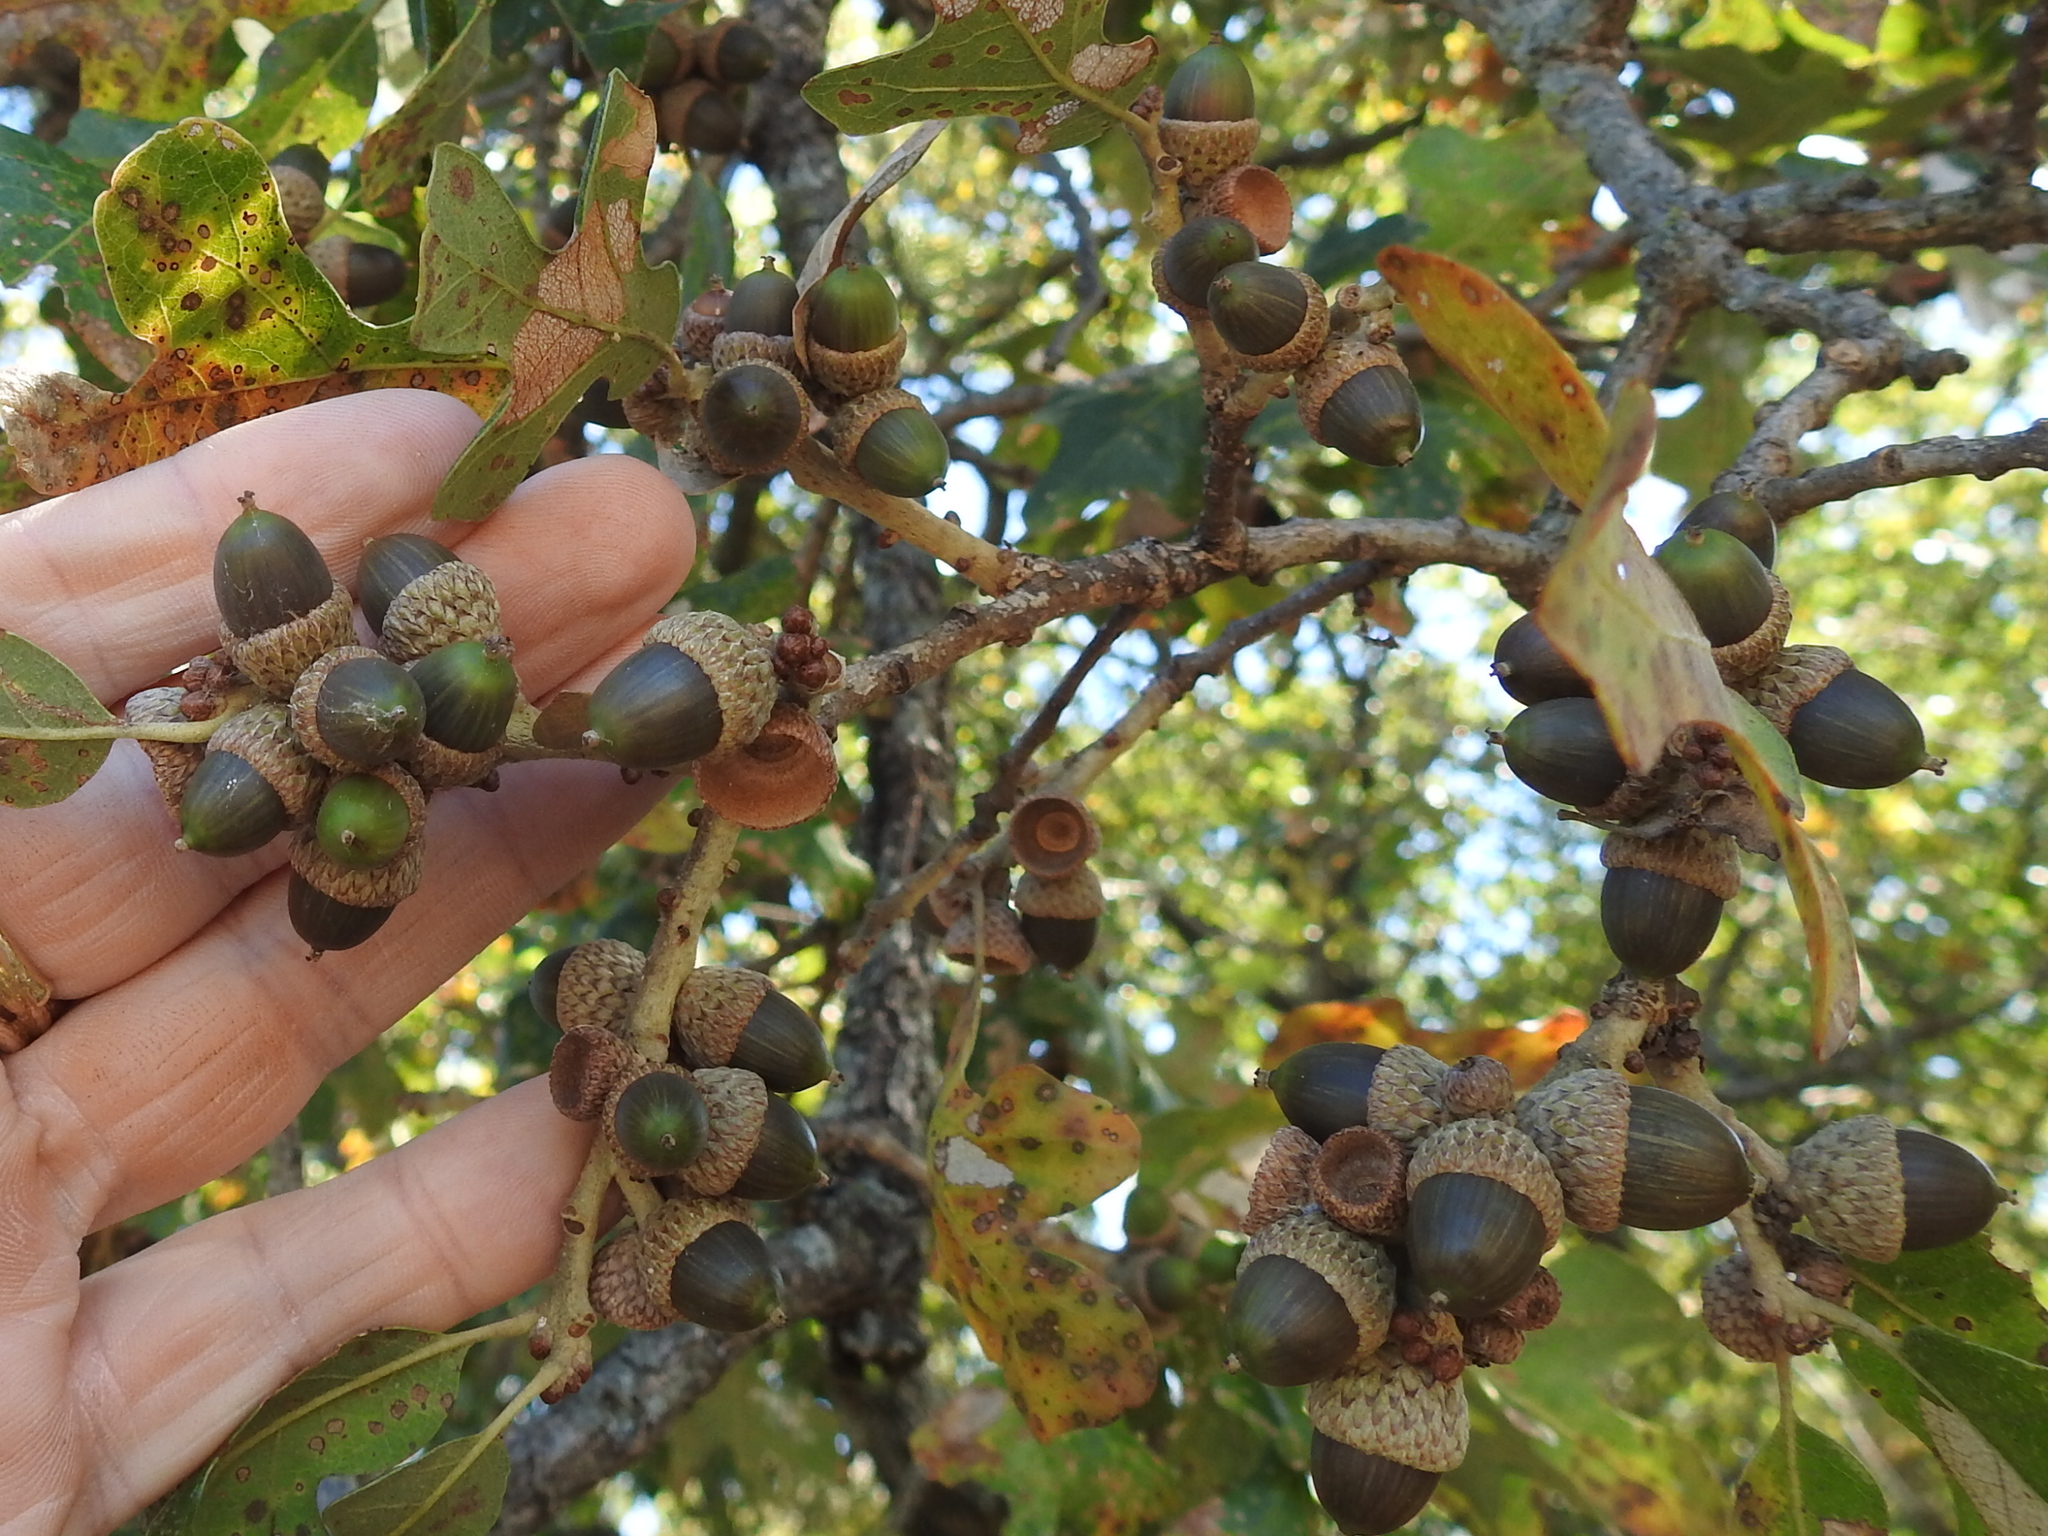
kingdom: Plantae
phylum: Tracheophyta
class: Magnoliopsida
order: Fagales
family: Fagaceae
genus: Quercus
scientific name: Quercus stellata
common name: Post oak
